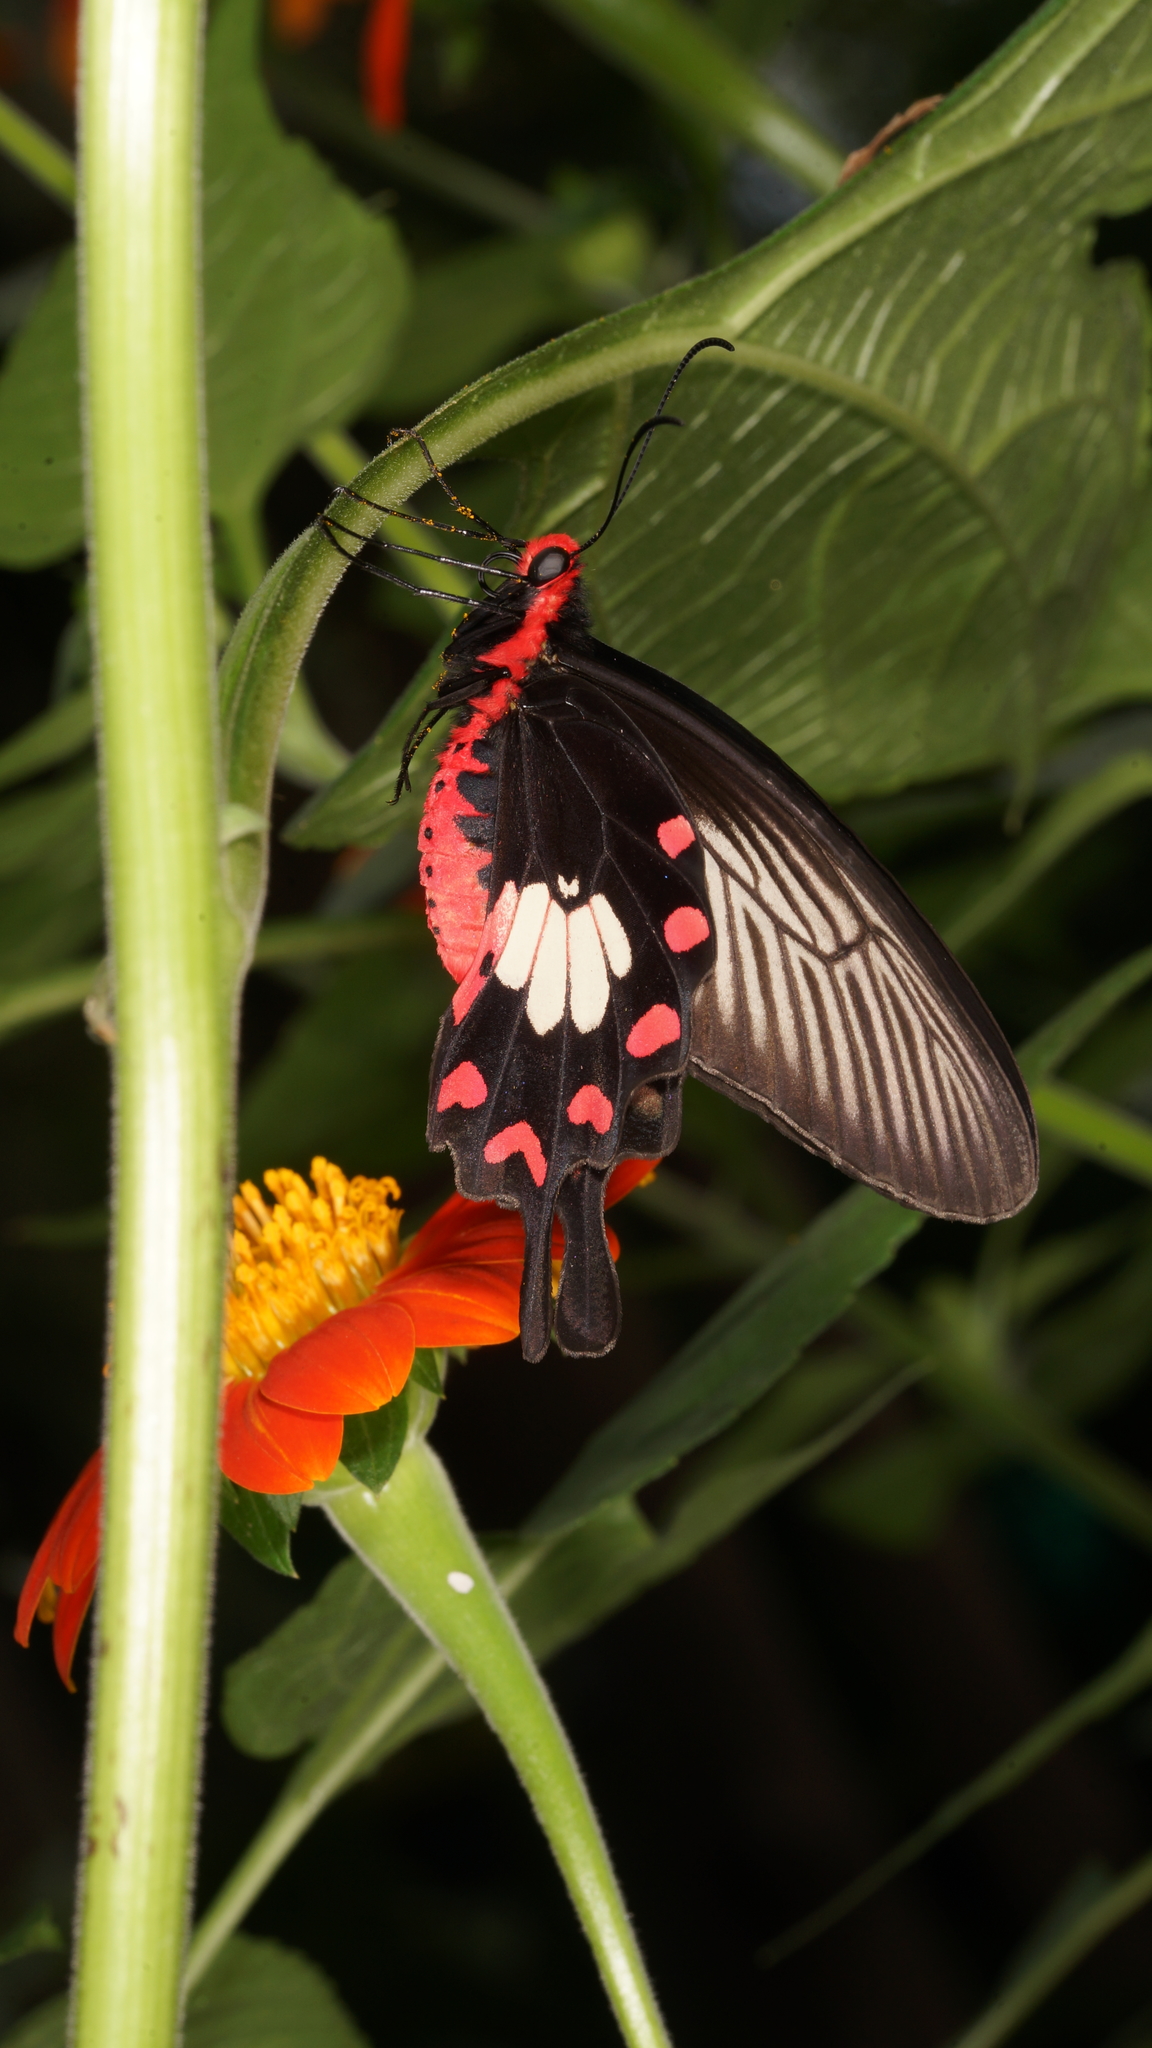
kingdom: Animalia
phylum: Arthropoda
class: Insecta
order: Lepidoptera
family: Papilionidae
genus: Pachliopta
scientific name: Pachliopta aristolochiae
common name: Common rose
